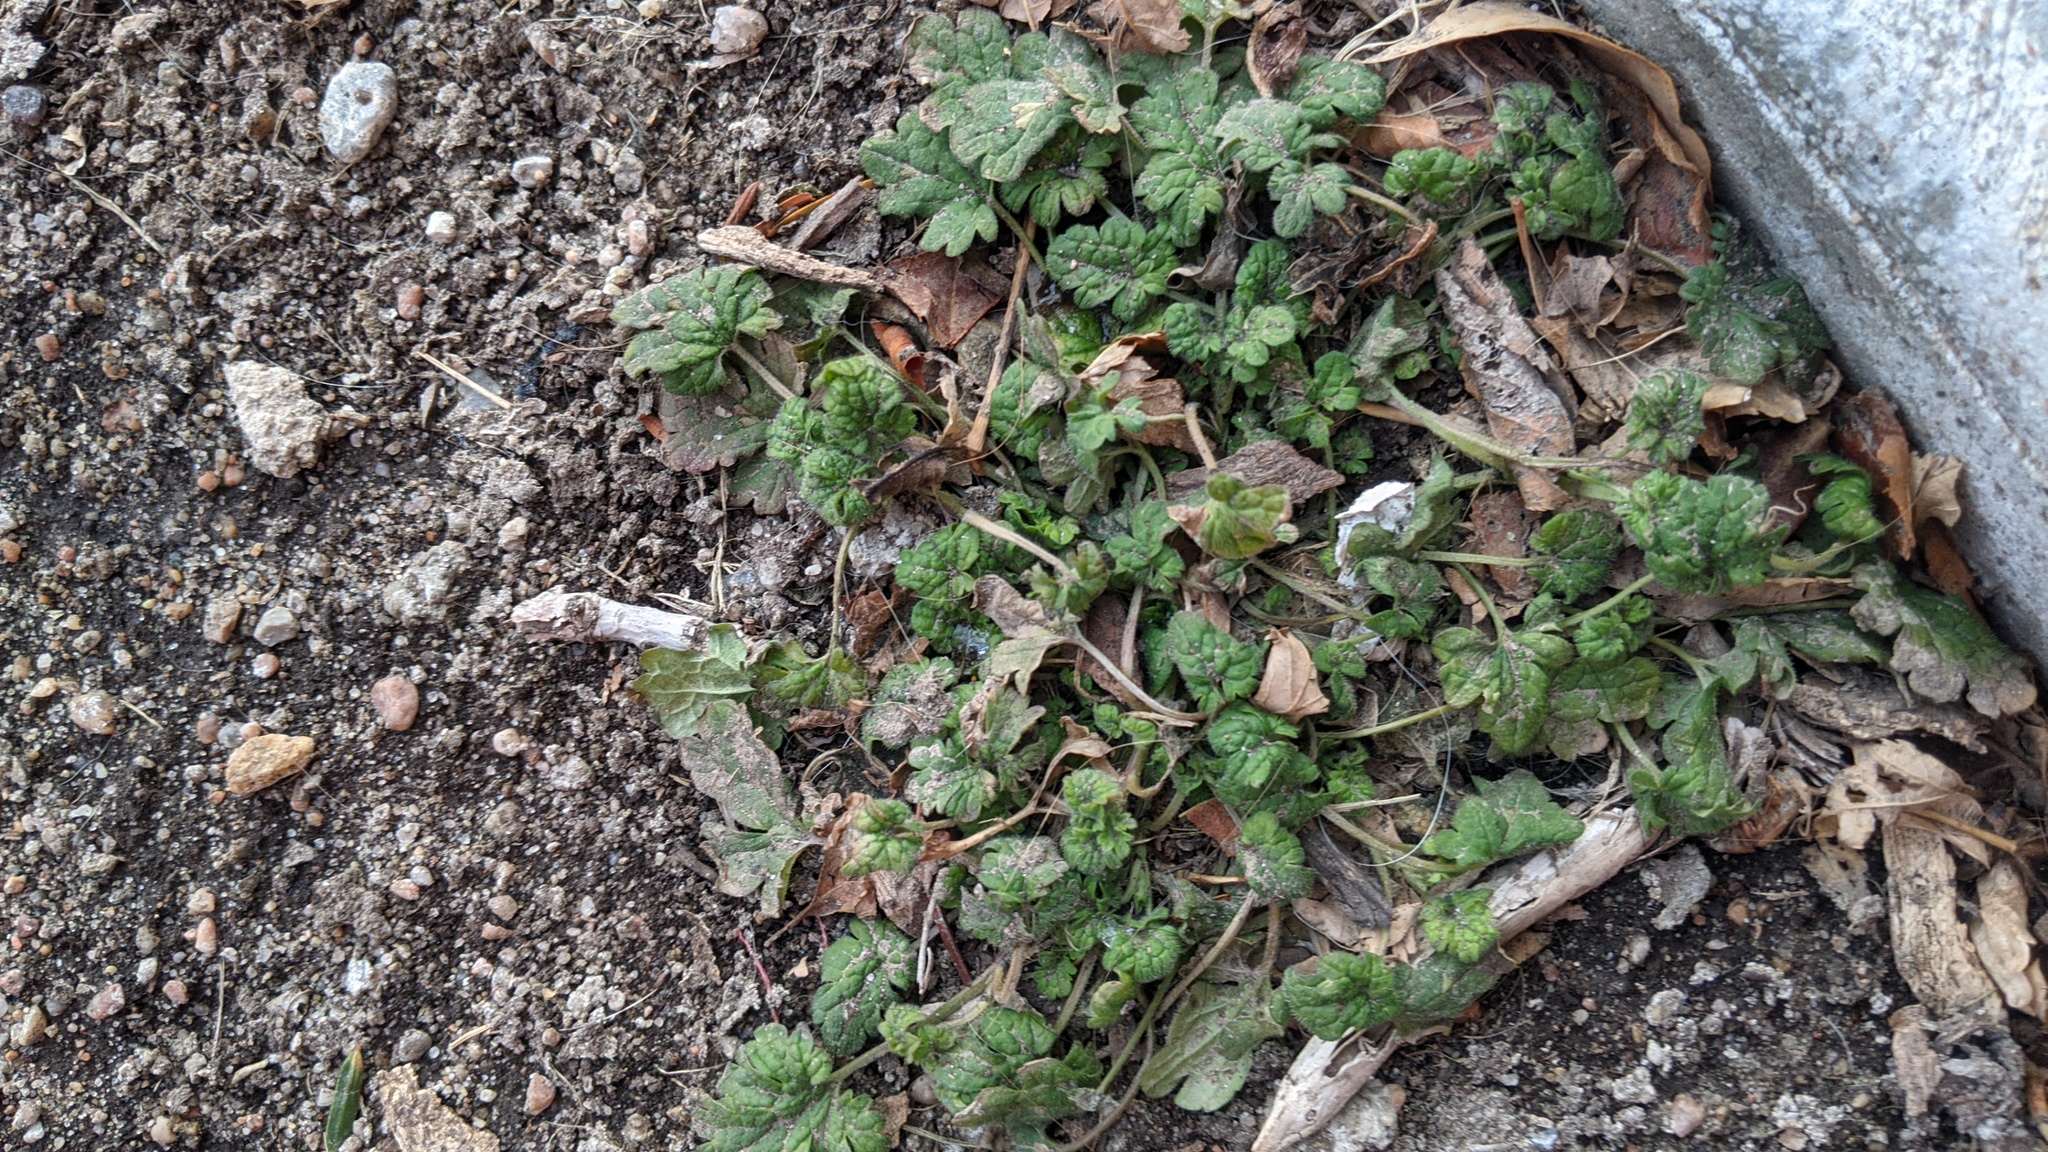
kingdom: Plantae
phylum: Tracheophyta
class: Magnoliopsida
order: Lamiales
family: Lamiaceae
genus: Lamium
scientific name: Lamium amplexicaule
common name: Henbit dead-nettle
